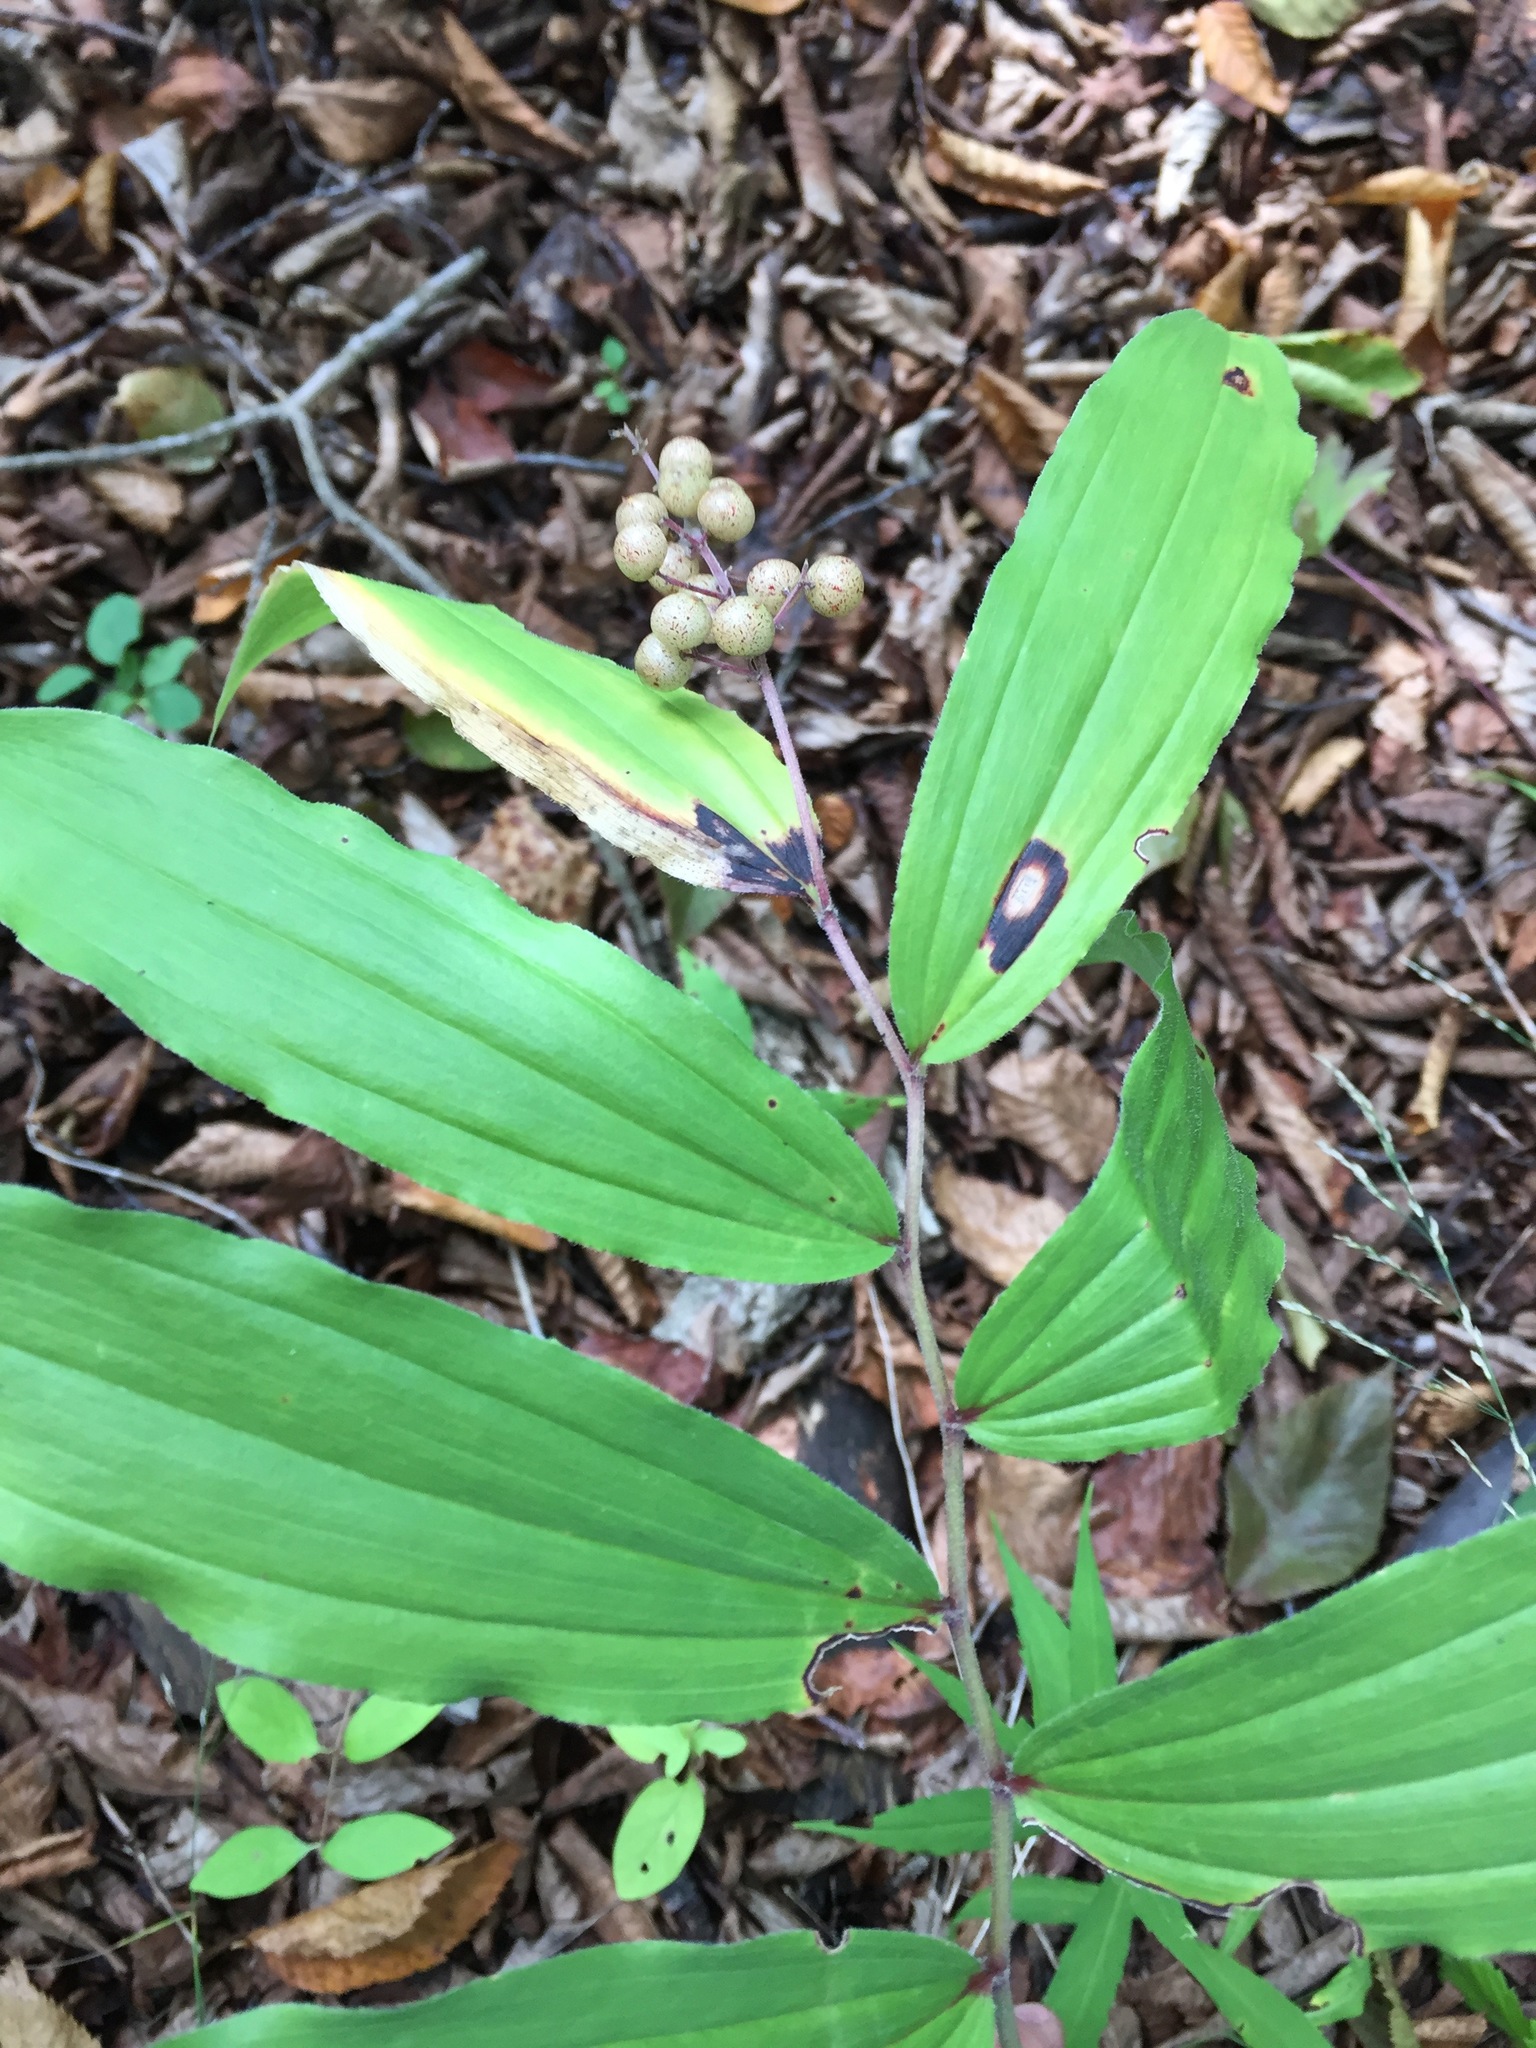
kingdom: Plantae
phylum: Tracheophyta
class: Liliopsida
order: Asparagales
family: Asparagaceae
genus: Maianthemum
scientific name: Maianthemum racemosum
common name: False spikenard
